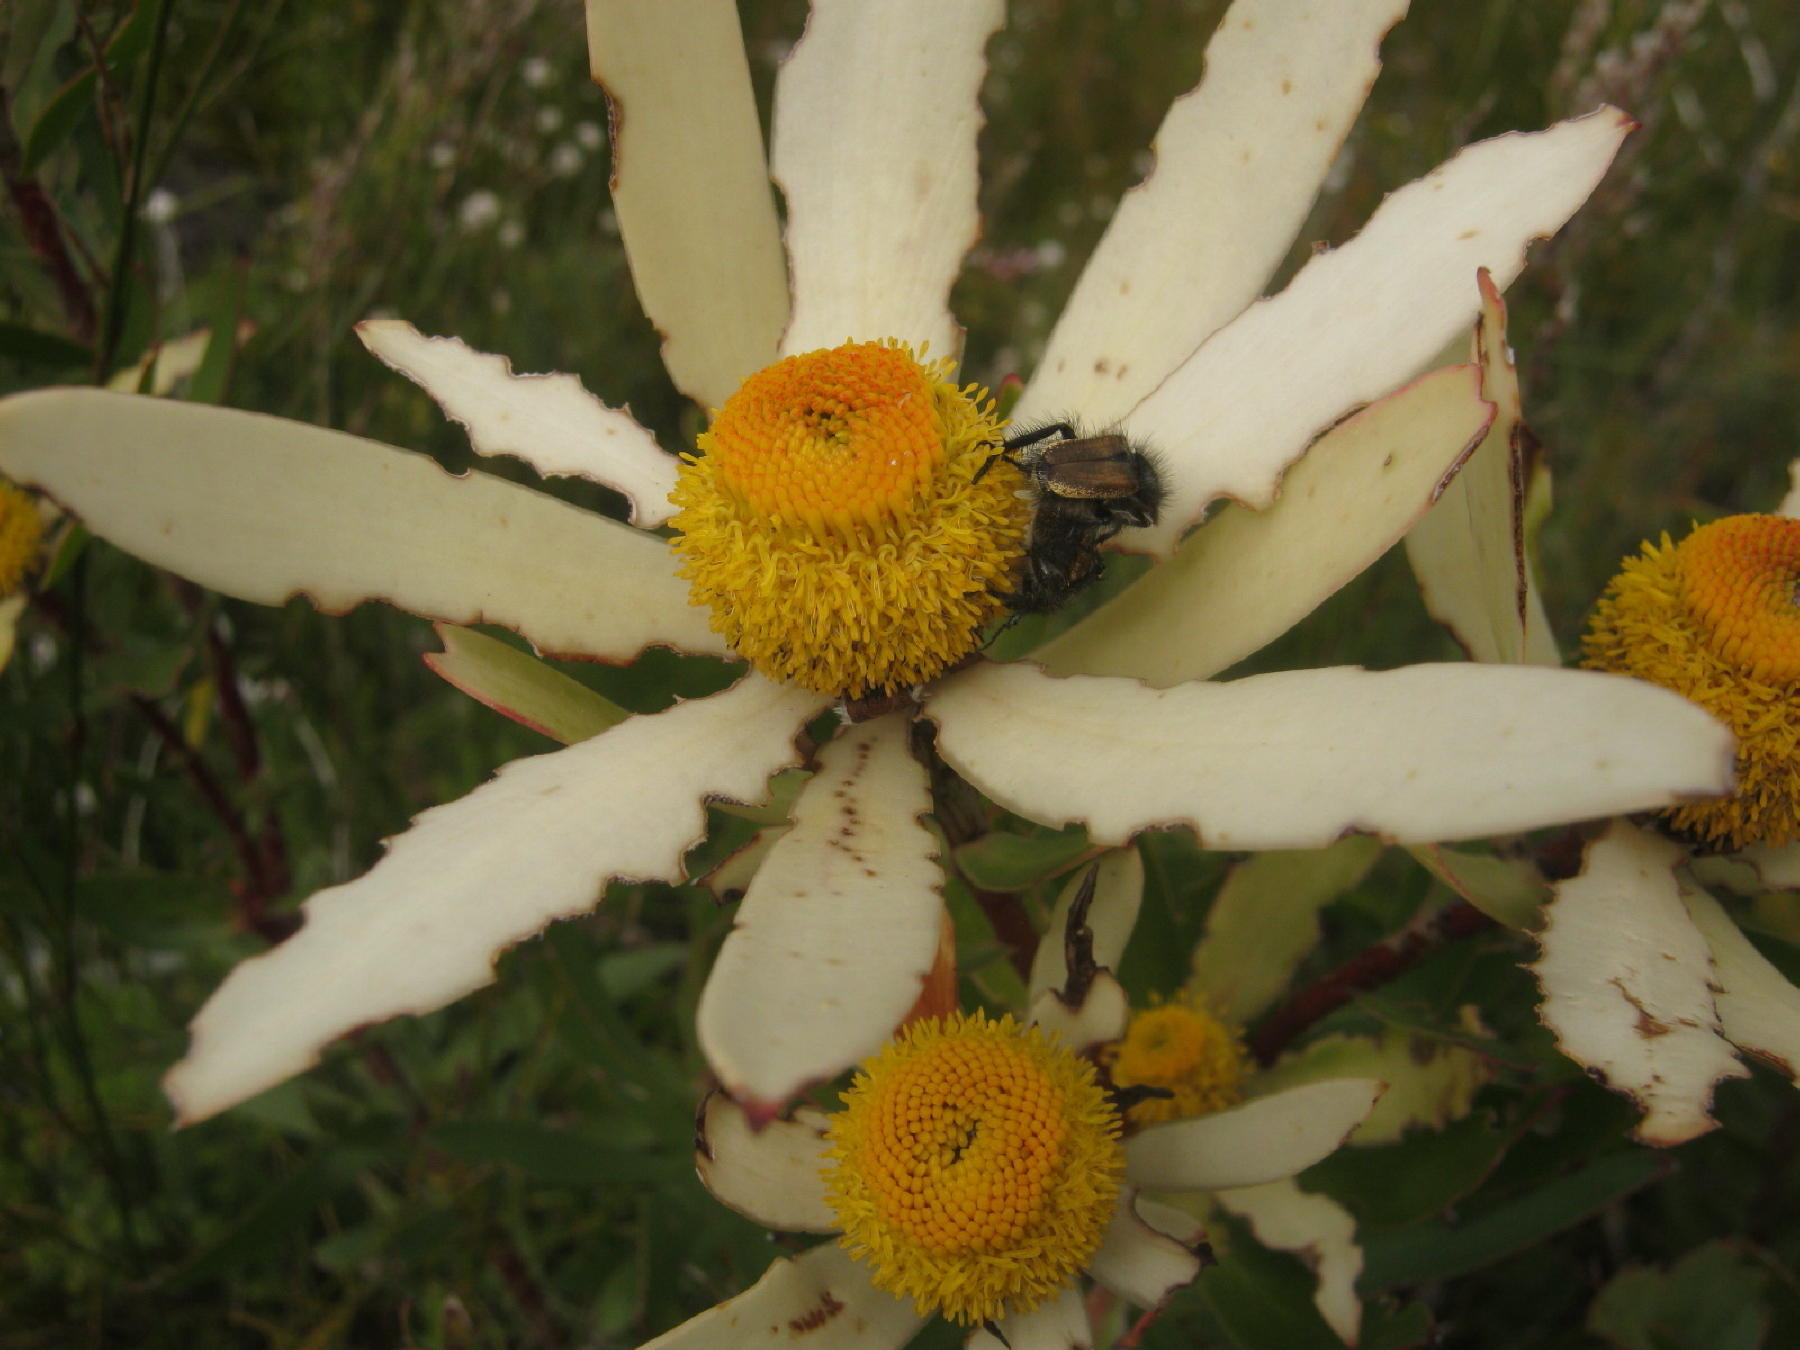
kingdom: Plantae
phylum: Tracheophyta
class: Magnoliopsida
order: Proteales
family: Proteaceae
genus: Leucadendron
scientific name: Leucadendron gandogeri
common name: Broad-leaf conebush
